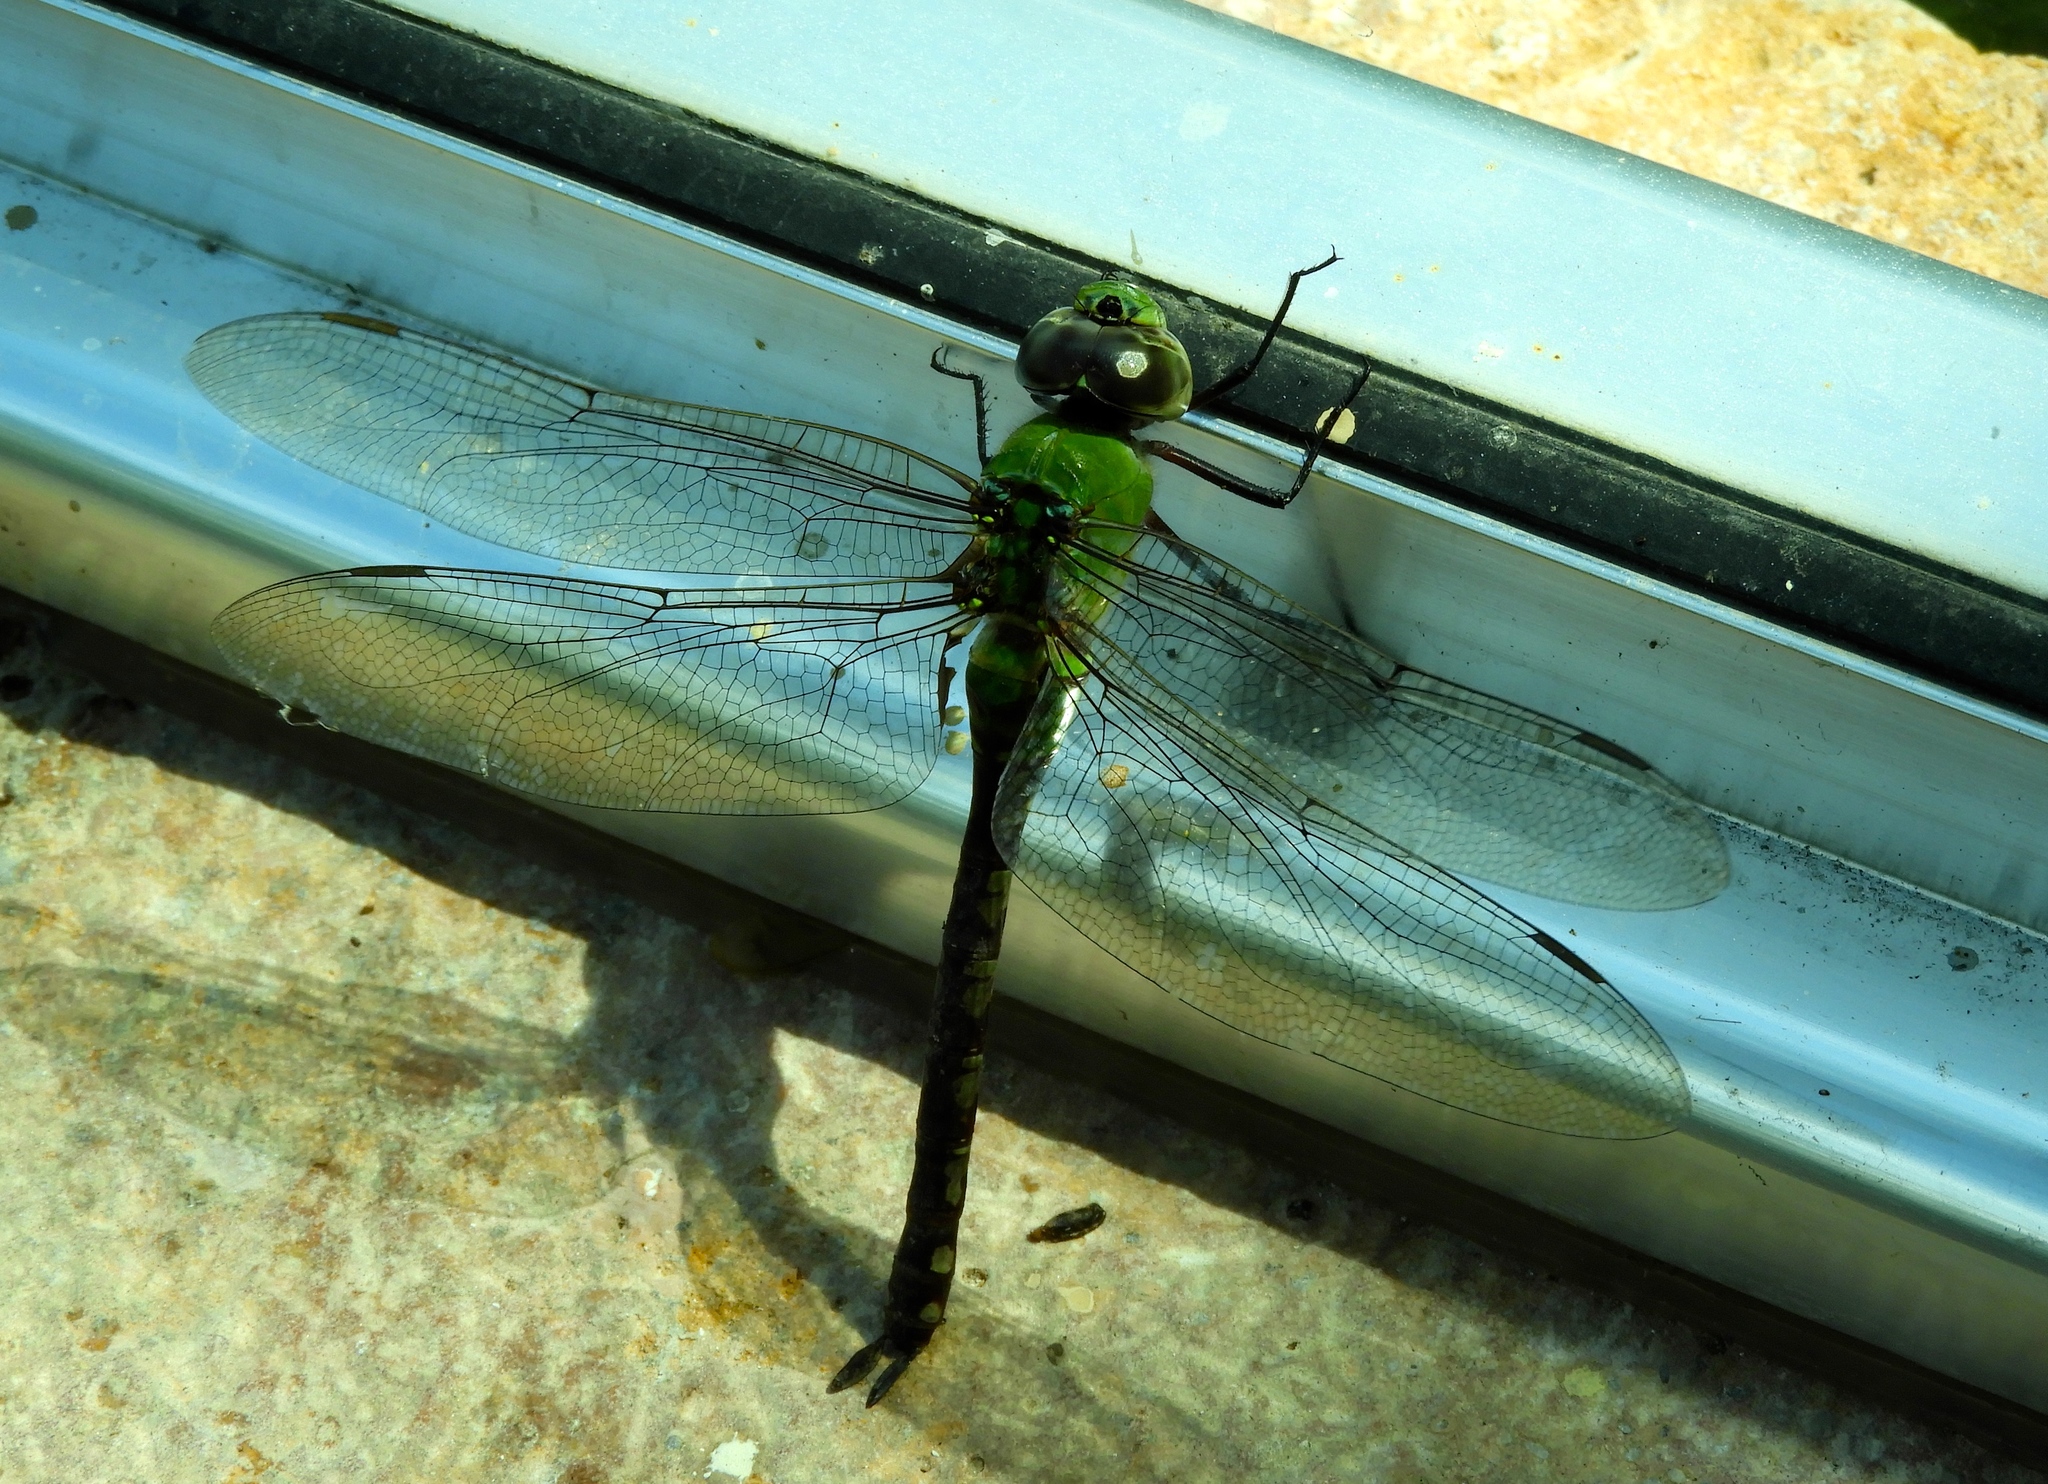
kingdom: Animalia
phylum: Arthropoda
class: Insecta
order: Odonata
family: Aeshnidae
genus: Anax
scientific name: Anax amazili
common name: Amazon darner
